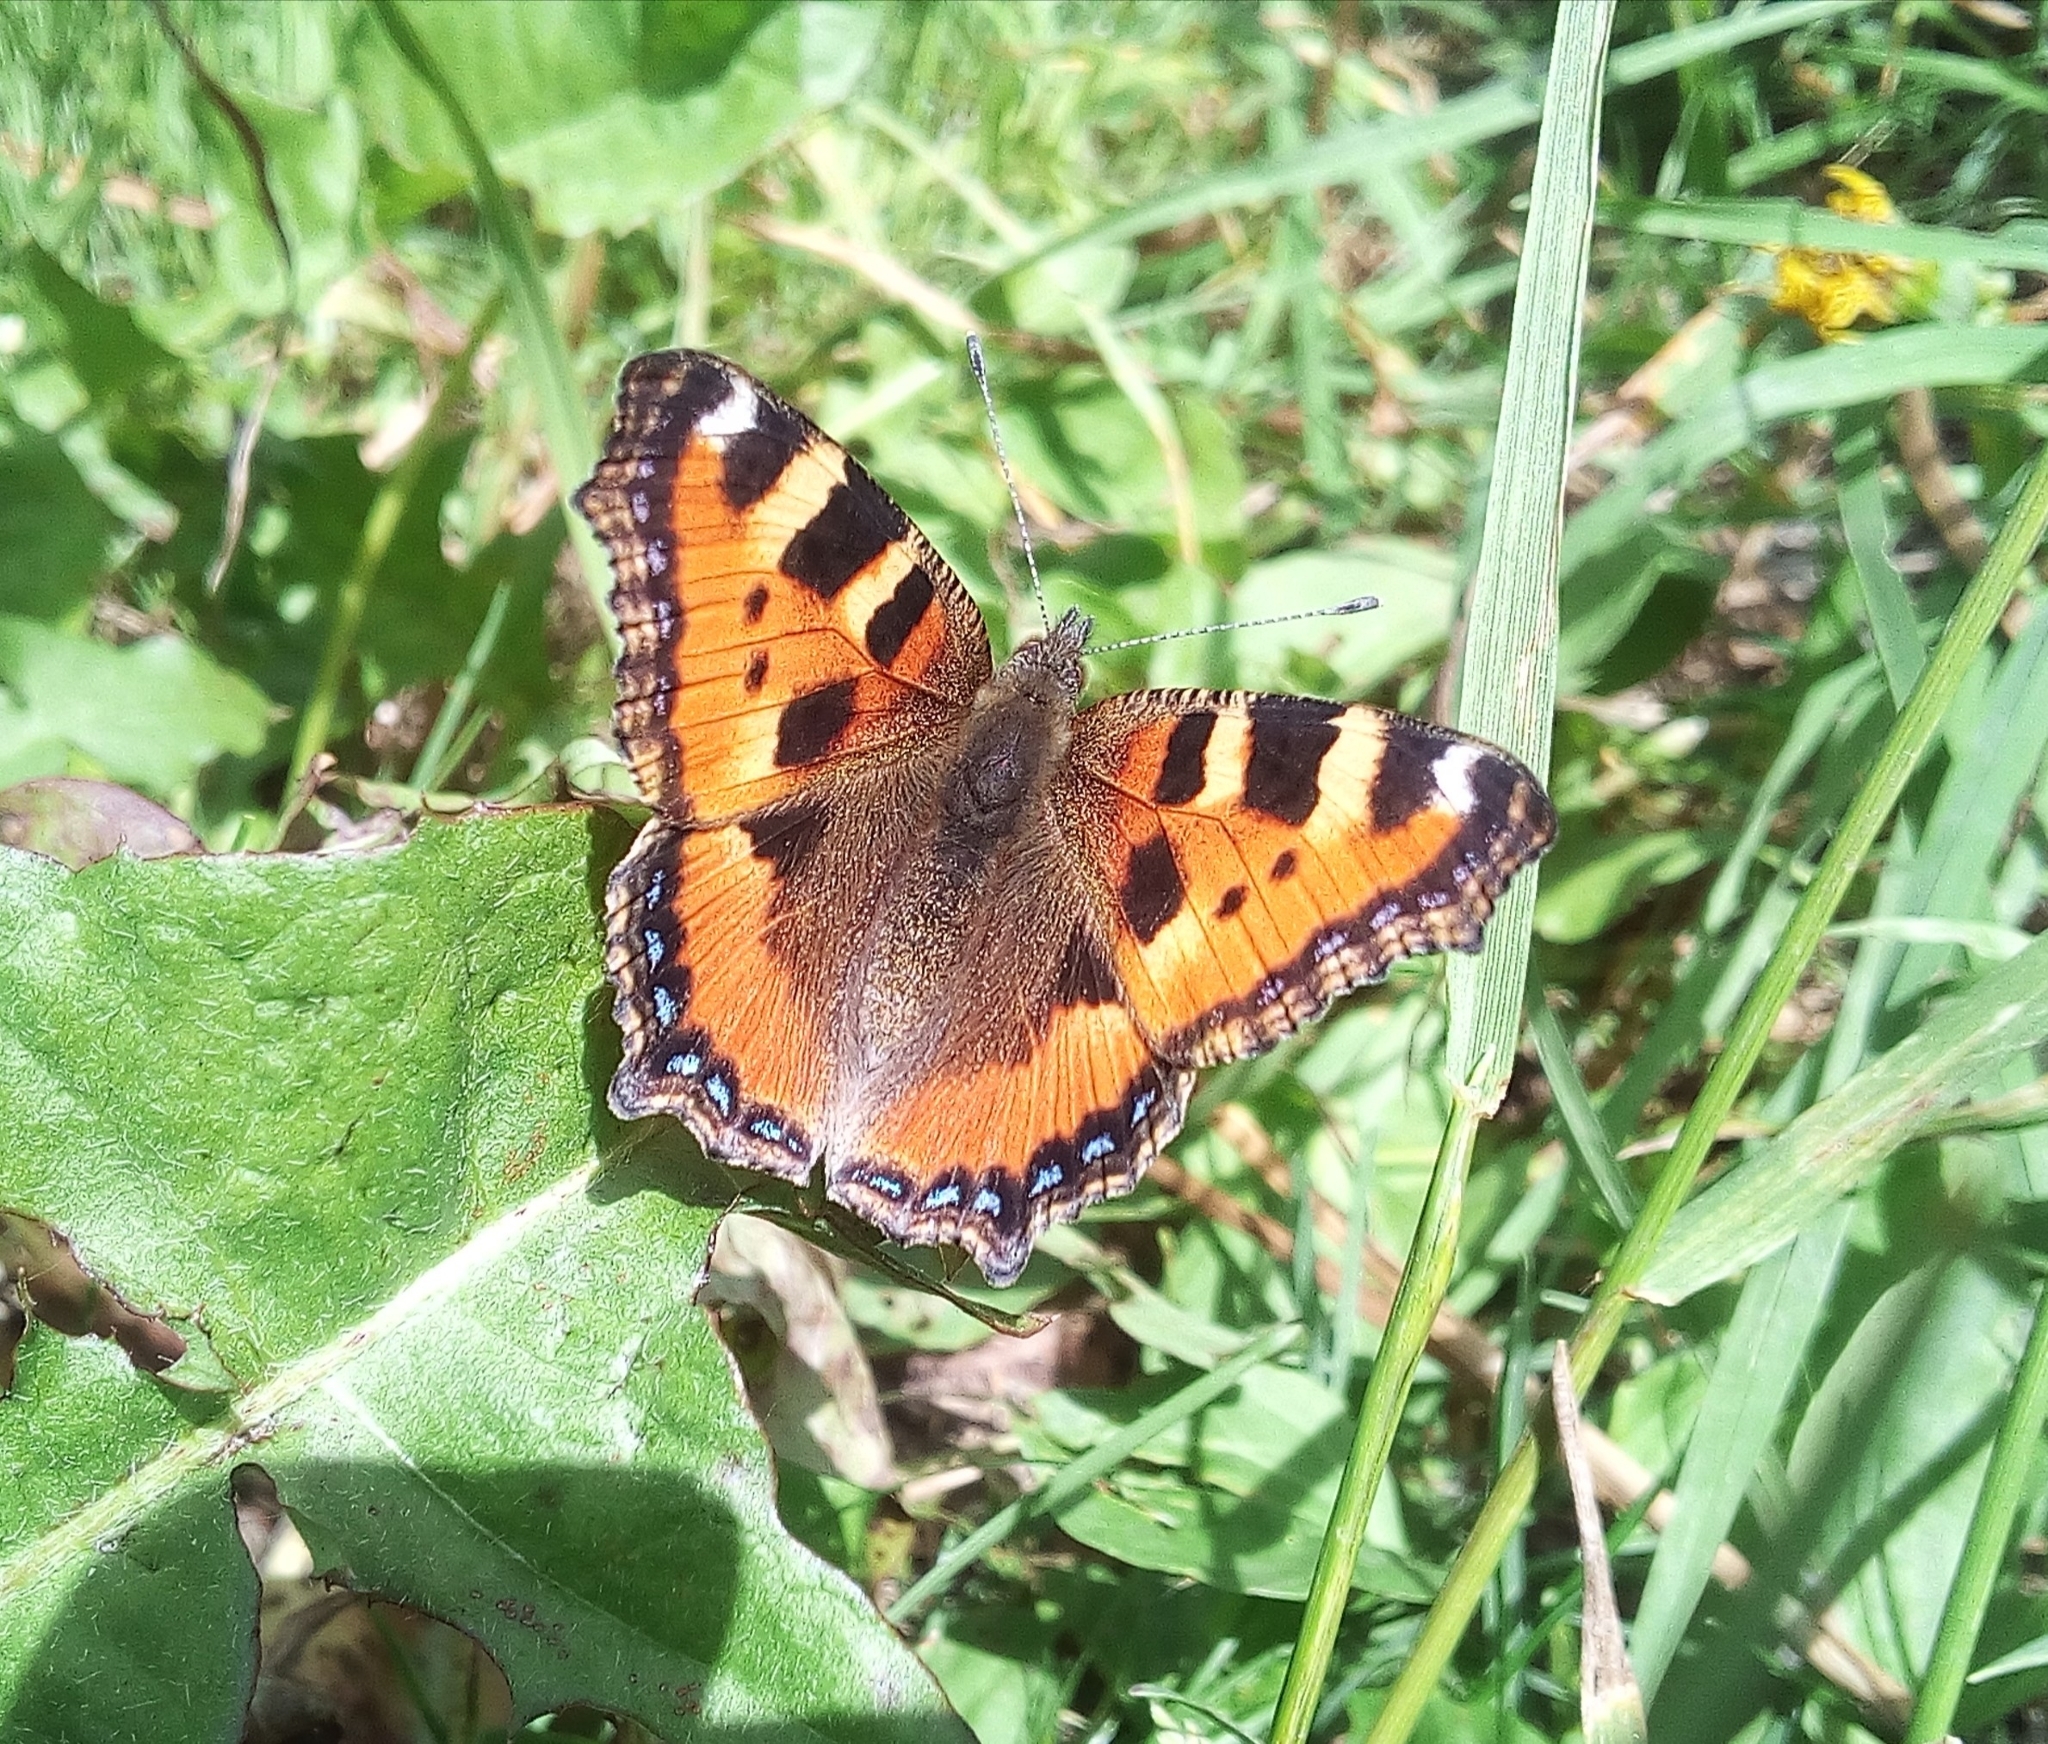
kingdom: Animalia
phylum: Arthropoda
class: Insecta
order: Lepidoptera
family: Nymphalidae
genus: Aglais
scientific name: Aglais urticae
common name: Small tortoiseshell
